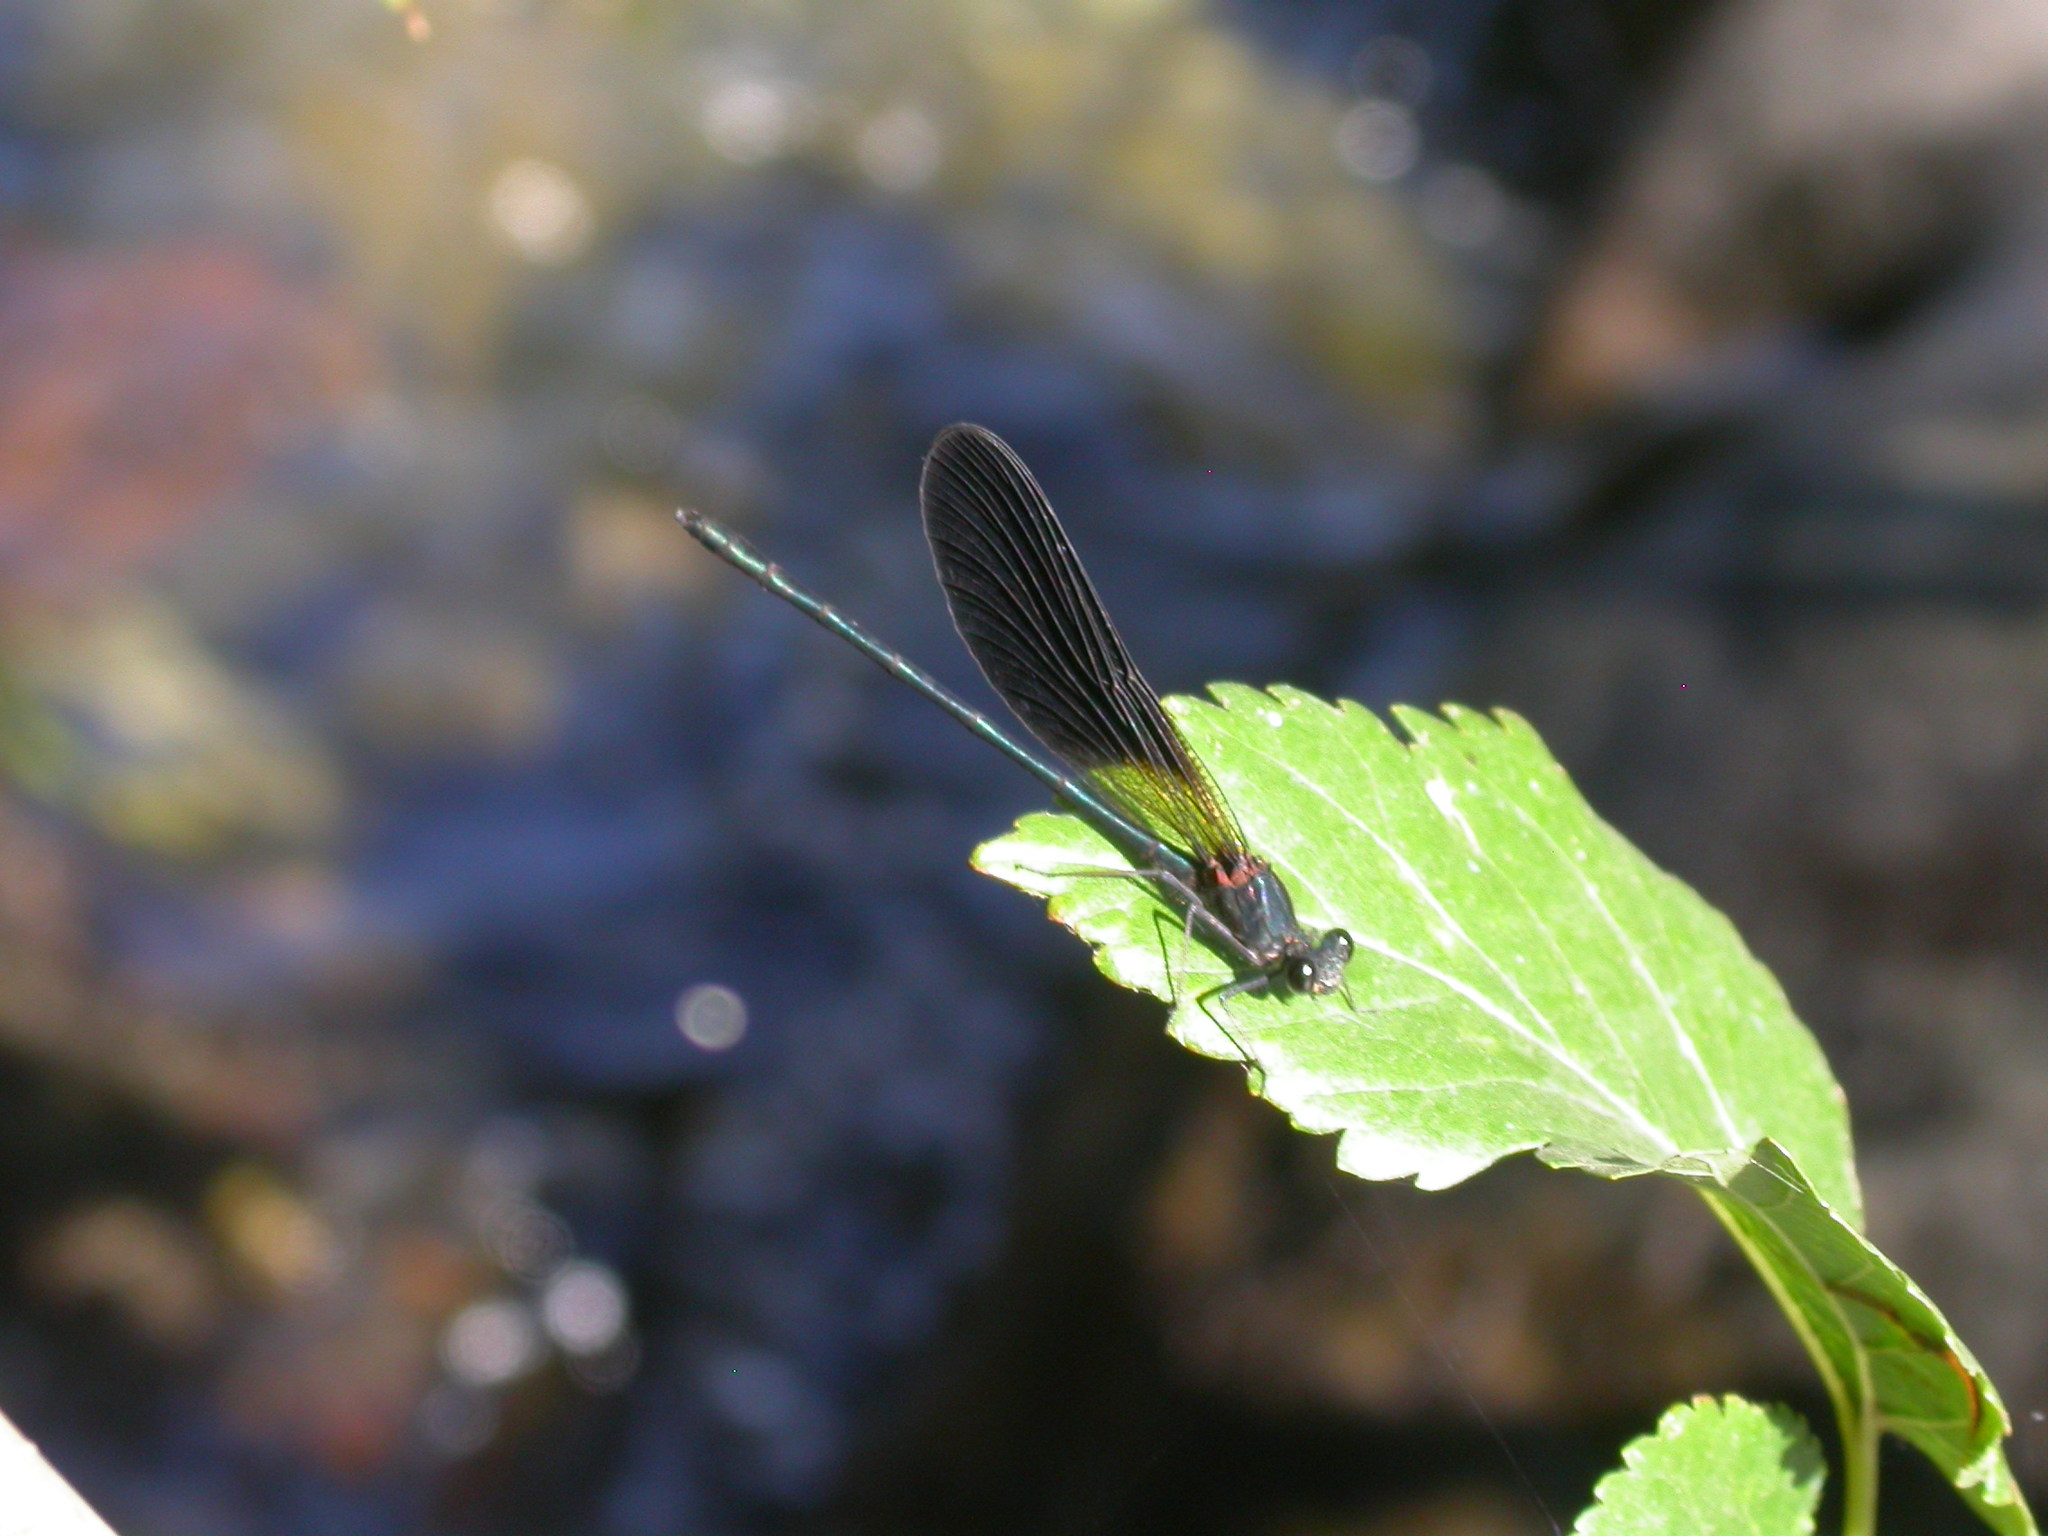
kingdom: Animalia
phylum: Arthropoda
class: Insecta
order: Odonata
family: Calopterygidae
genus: Calopteryx
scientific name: Calopteryx haemorrhoidalis
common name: Copper demoiselle
